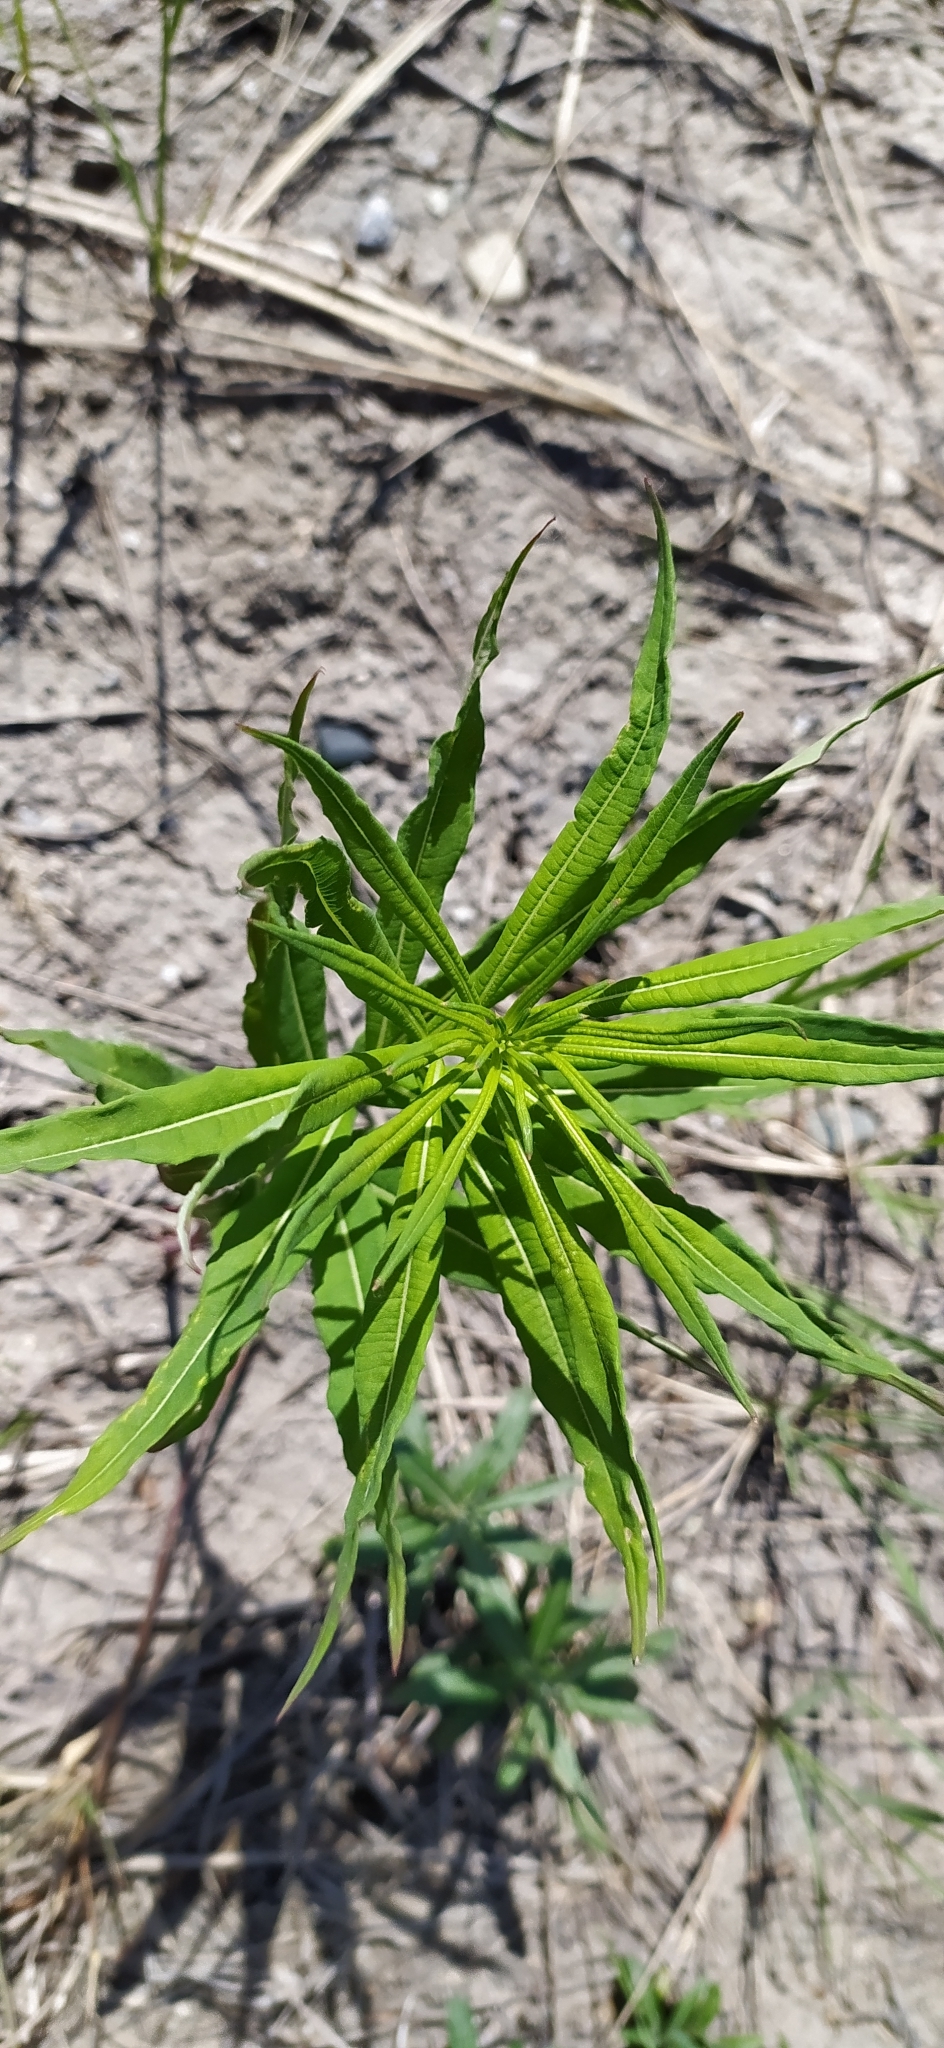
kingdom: Plantae
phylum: Tracheophyta
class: Magnoliopsida
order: Myrtales
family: Onagraceae
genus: Chamaenerion
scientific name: Chamaenerion angustifolium
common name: Fireweed
